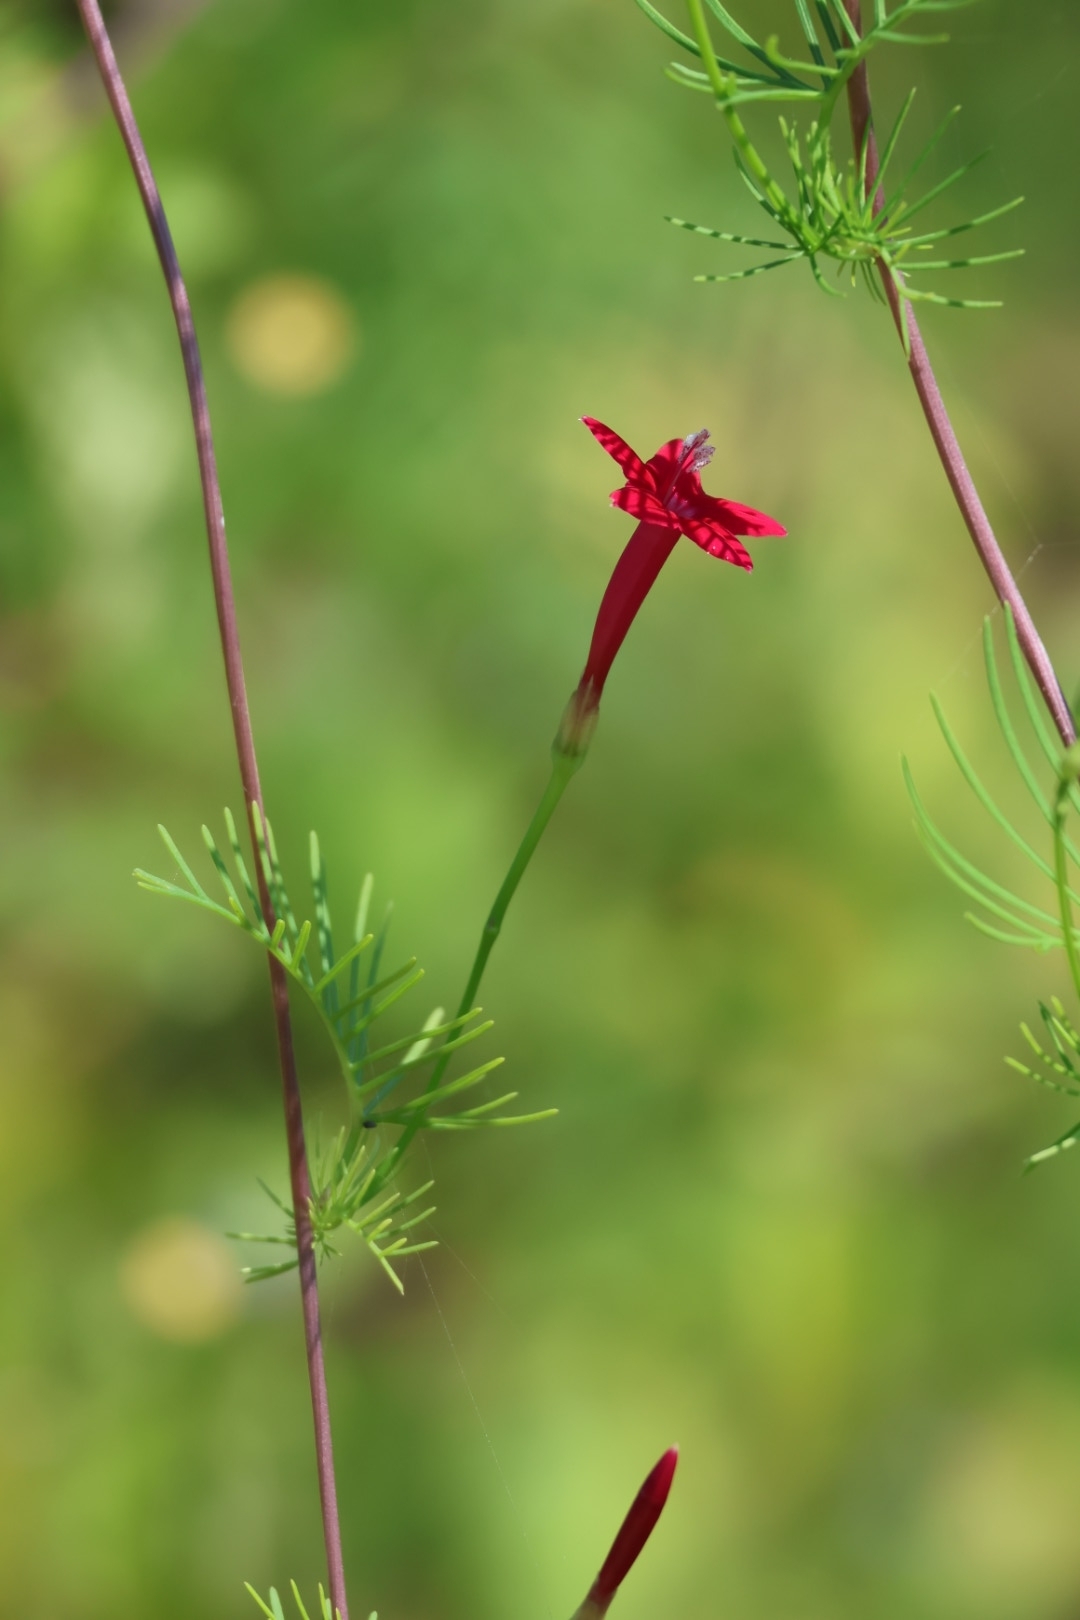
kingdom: Plantae
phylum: Tracheophyta
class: Magnoliopsida
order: Solanales
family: Convolvulaceae
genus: Ipomoea
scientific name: Ipomoea quamoclit
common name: Cypress vine
